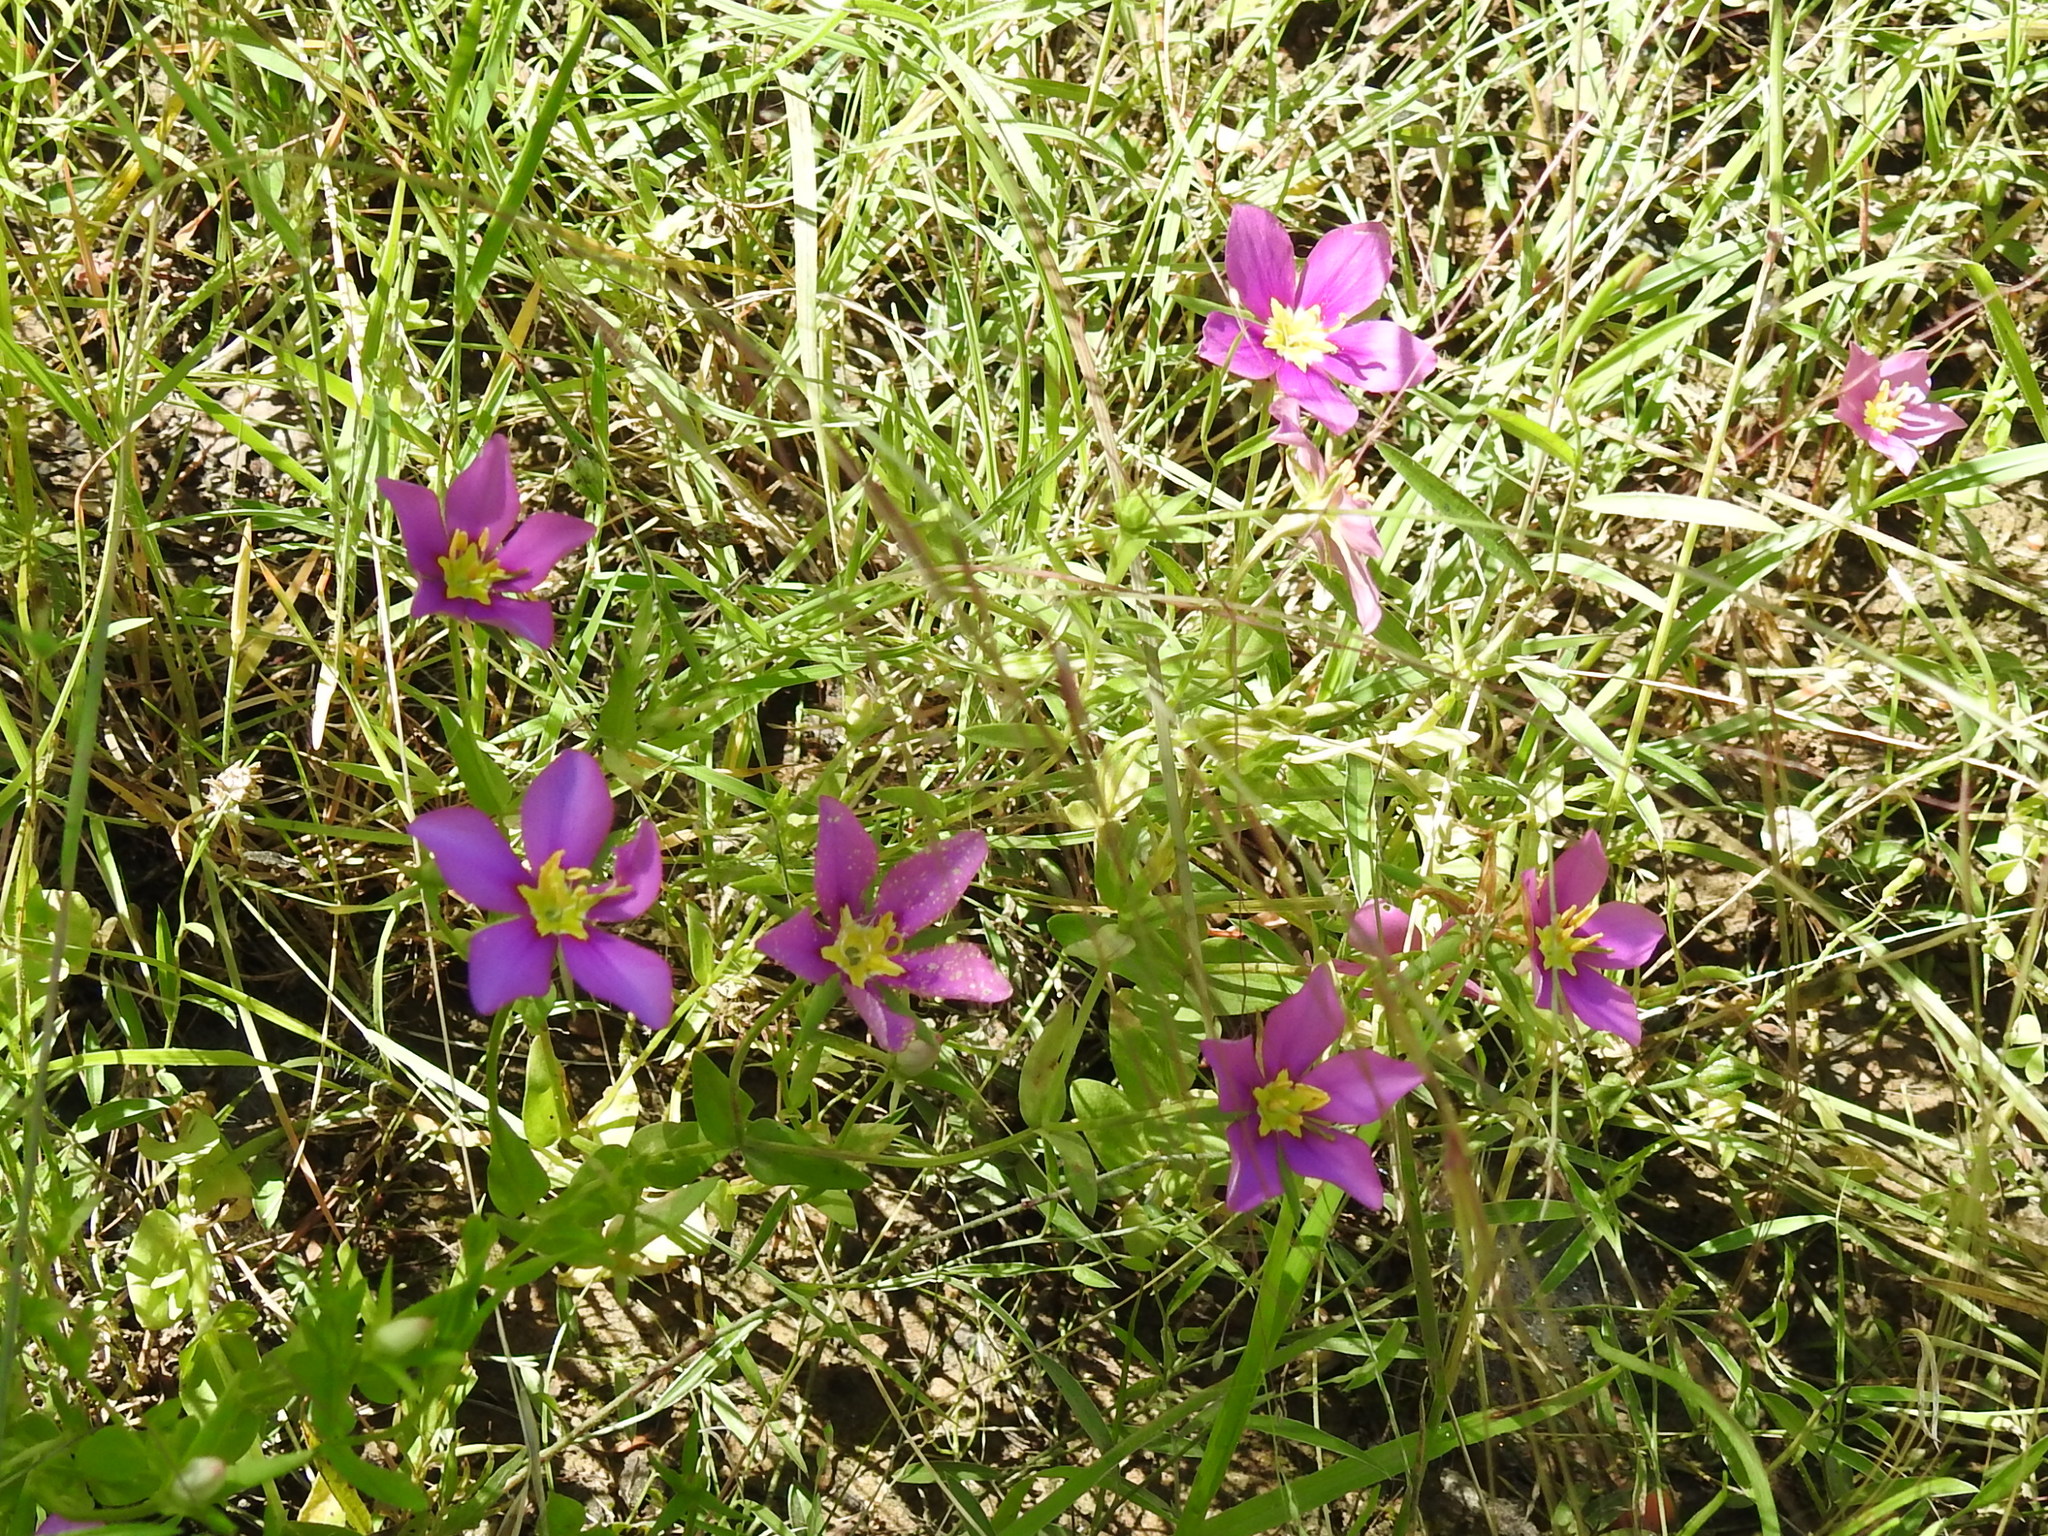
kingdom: Plantae
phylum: Tracheophyta
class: Magnoliopsida
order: Gentianales
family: Gentianaceae
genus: Sabatia
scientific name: Sabatia campestris
